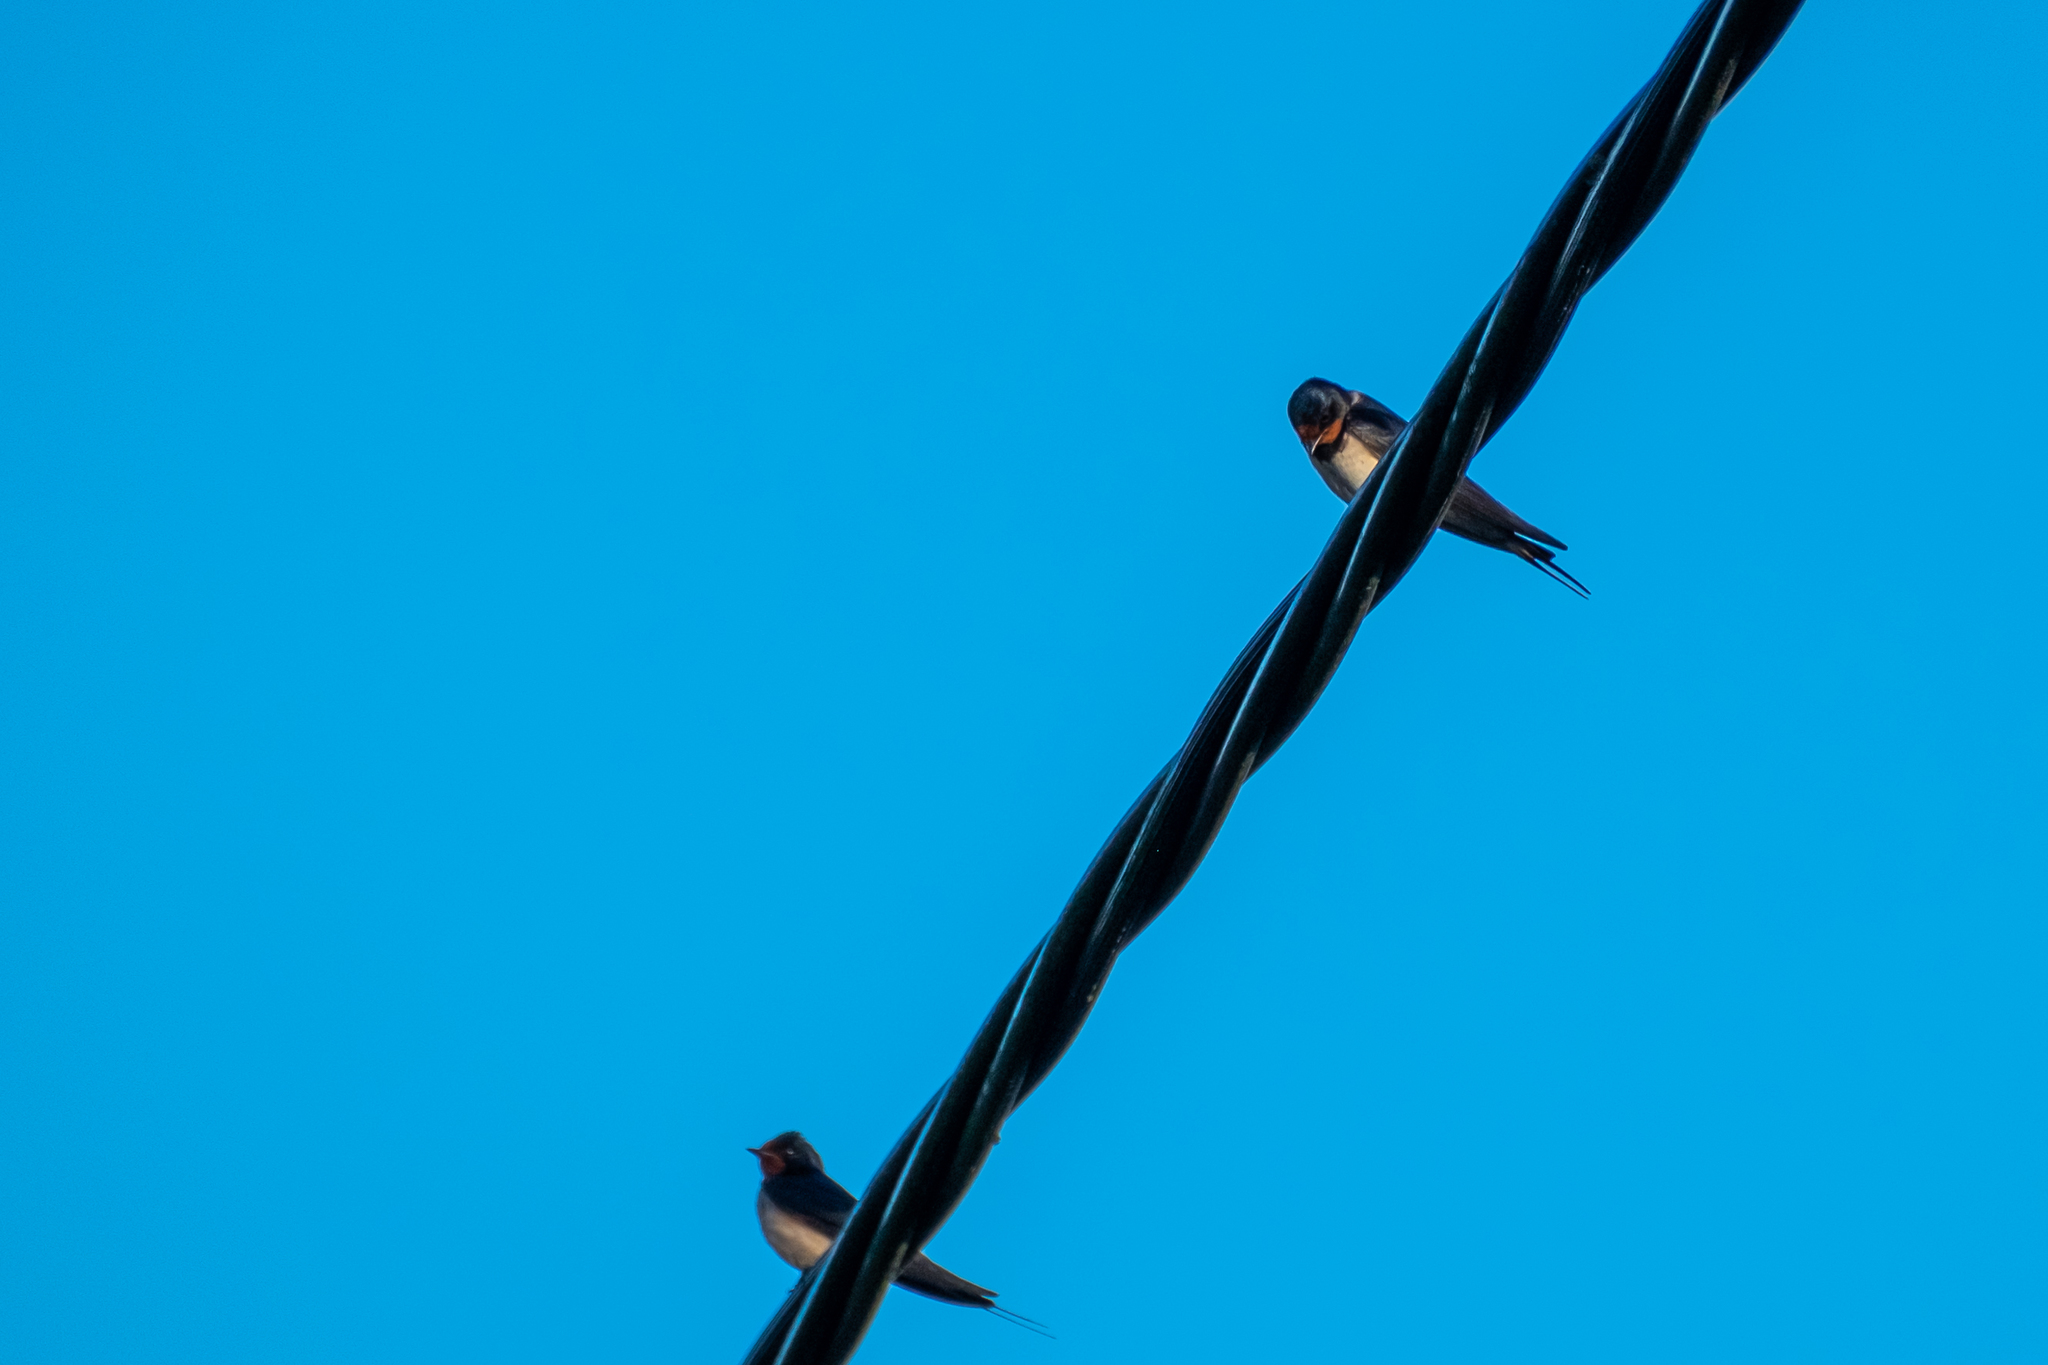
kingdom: Animalia
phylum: Chordata
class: Aves
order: Passeriformes
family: Hirundinidae
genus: Hirundo
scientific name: Hirundo rustica
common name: Barn swallow
